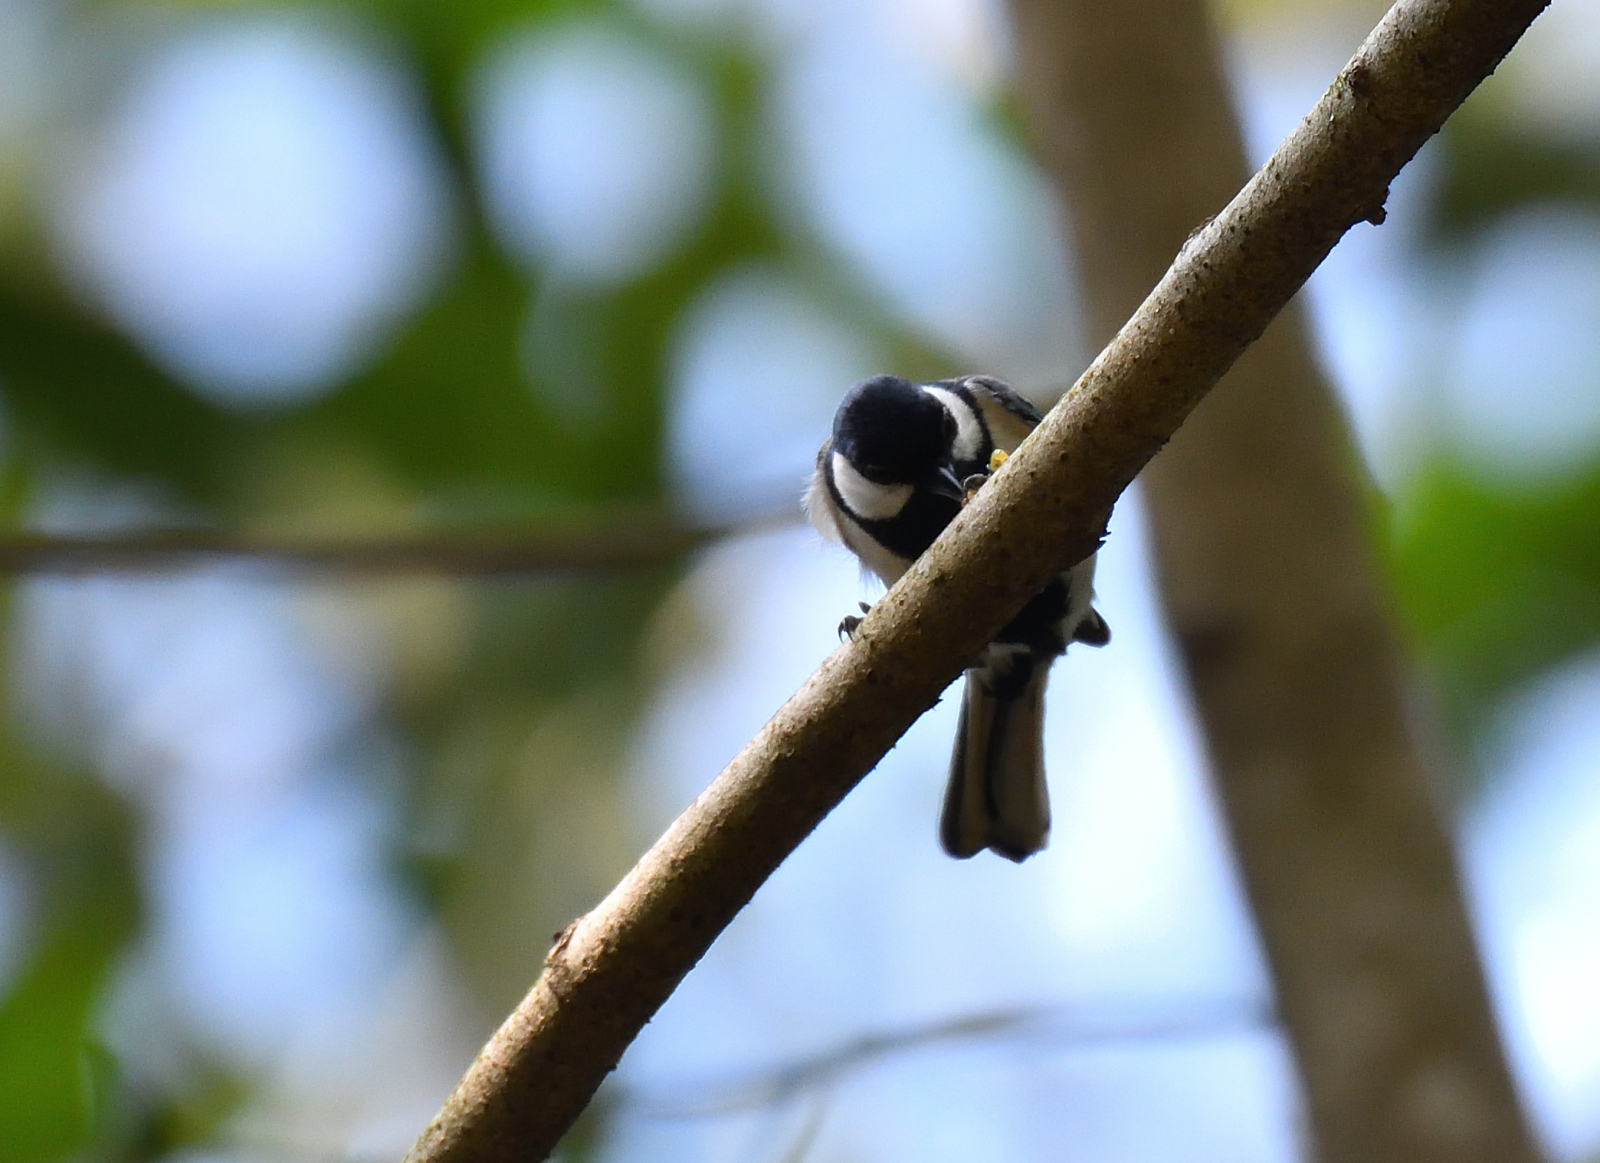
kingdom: Animalia
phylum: Chordata
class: Aves
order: Passeriformes
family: Paridae
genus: Parus
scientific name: Parus cinereus
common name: Cinereous tit
